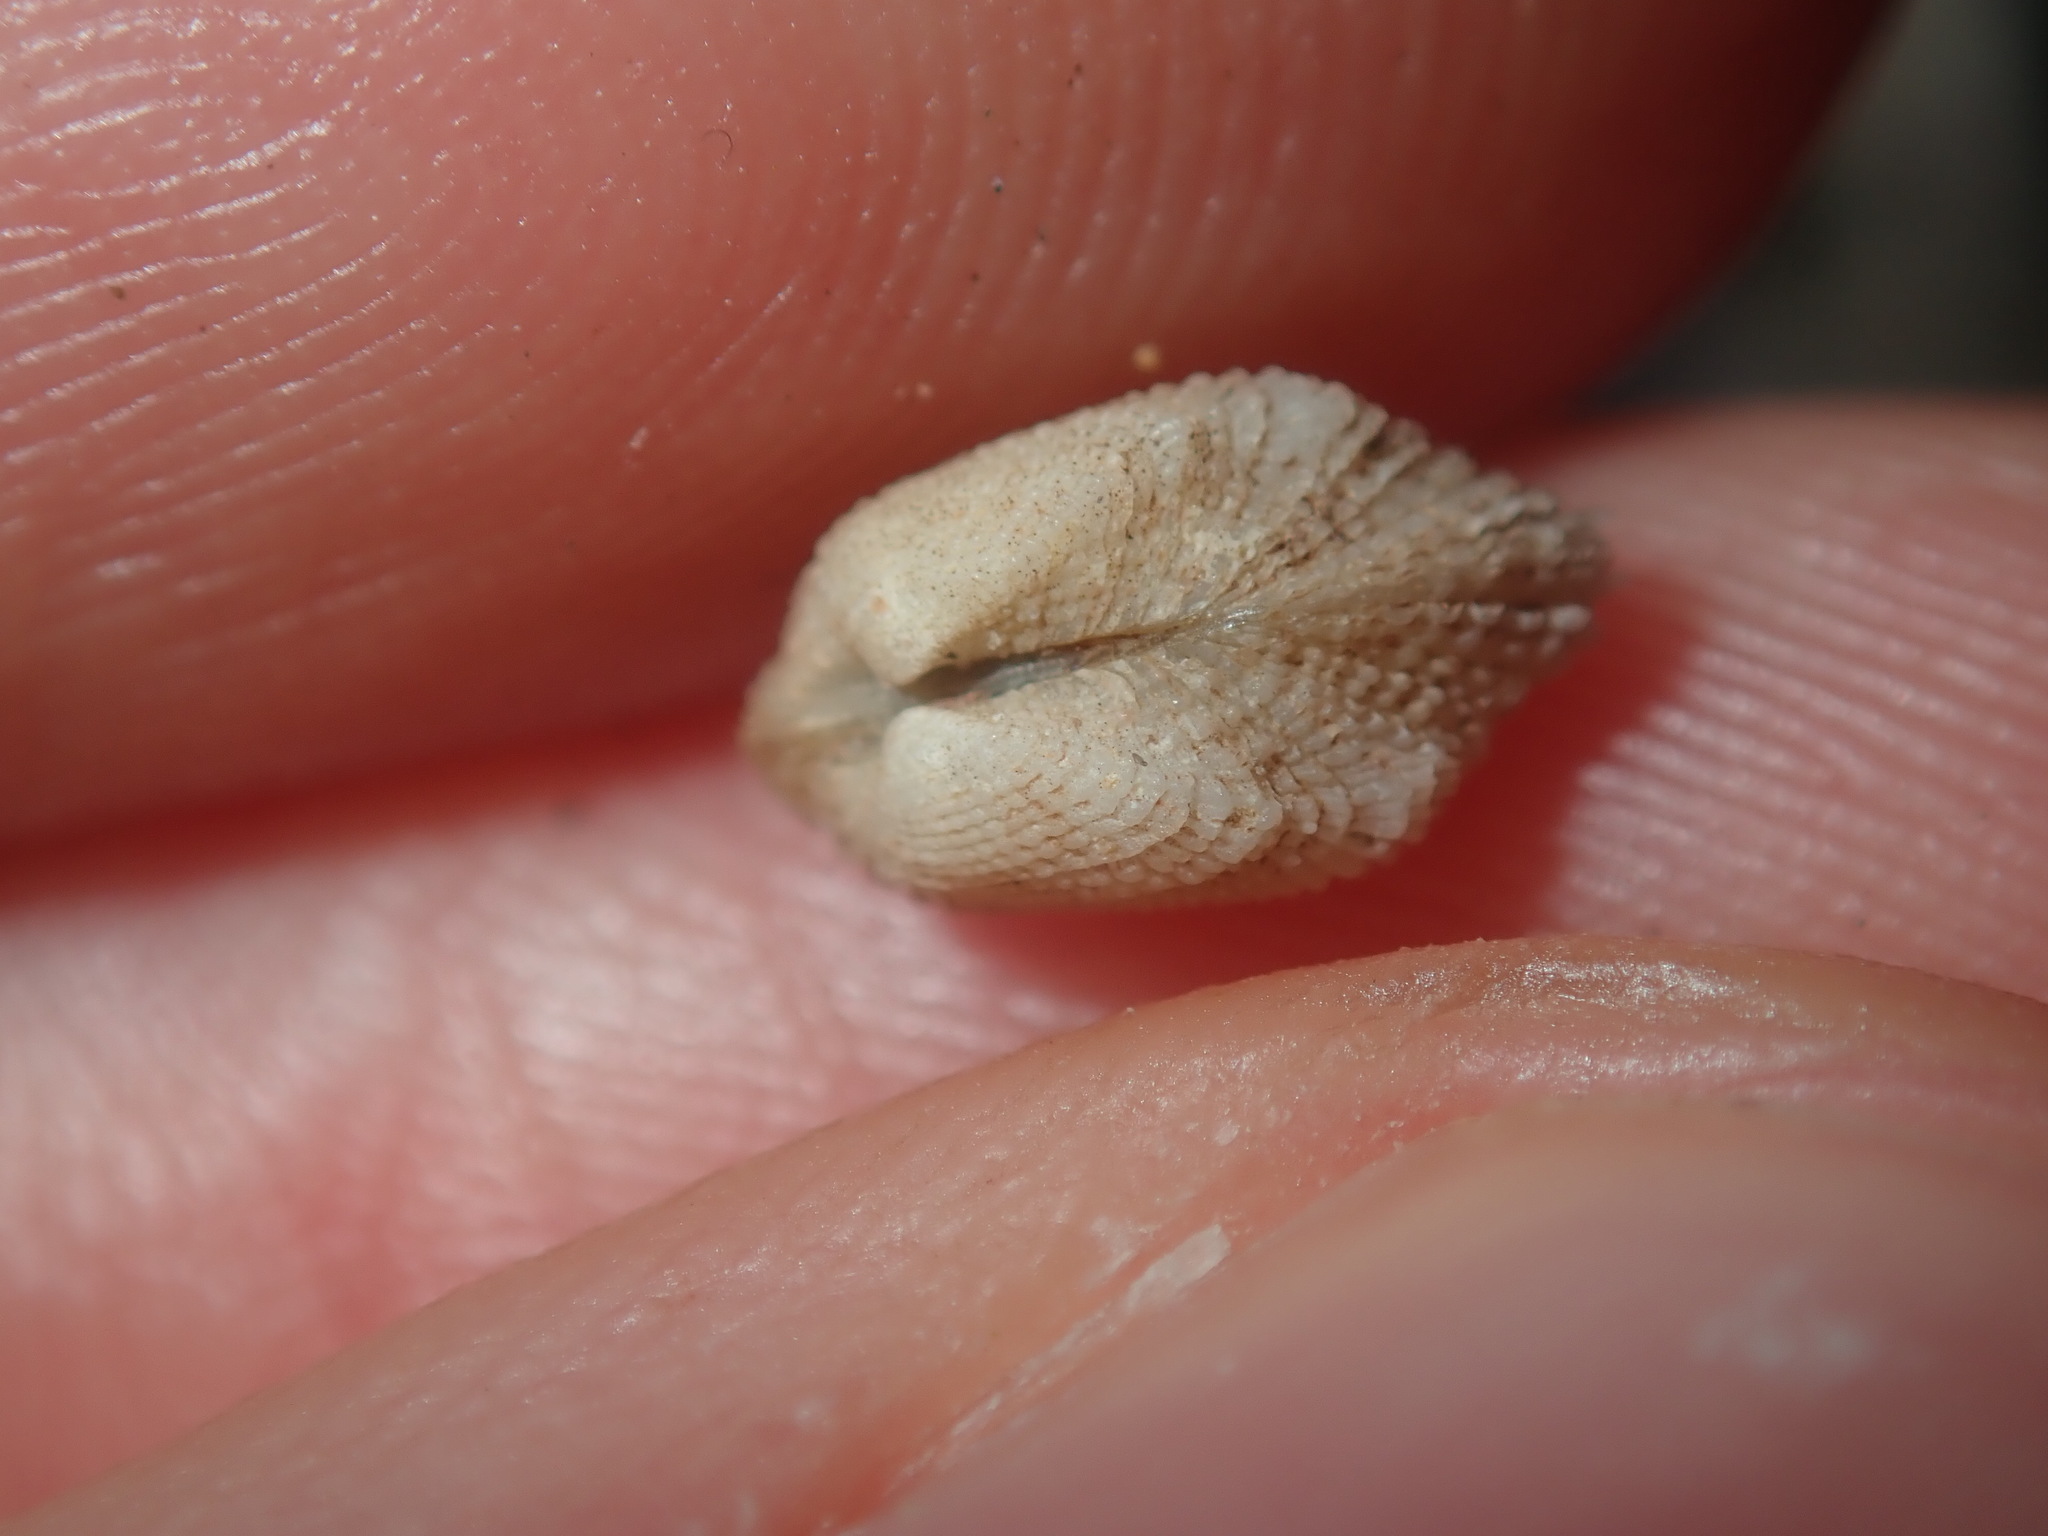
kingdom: Animalia
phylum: Mollusca
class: Bivalvia
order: Arcida
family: Arcidae
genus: Acar
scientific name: Acar botanica
